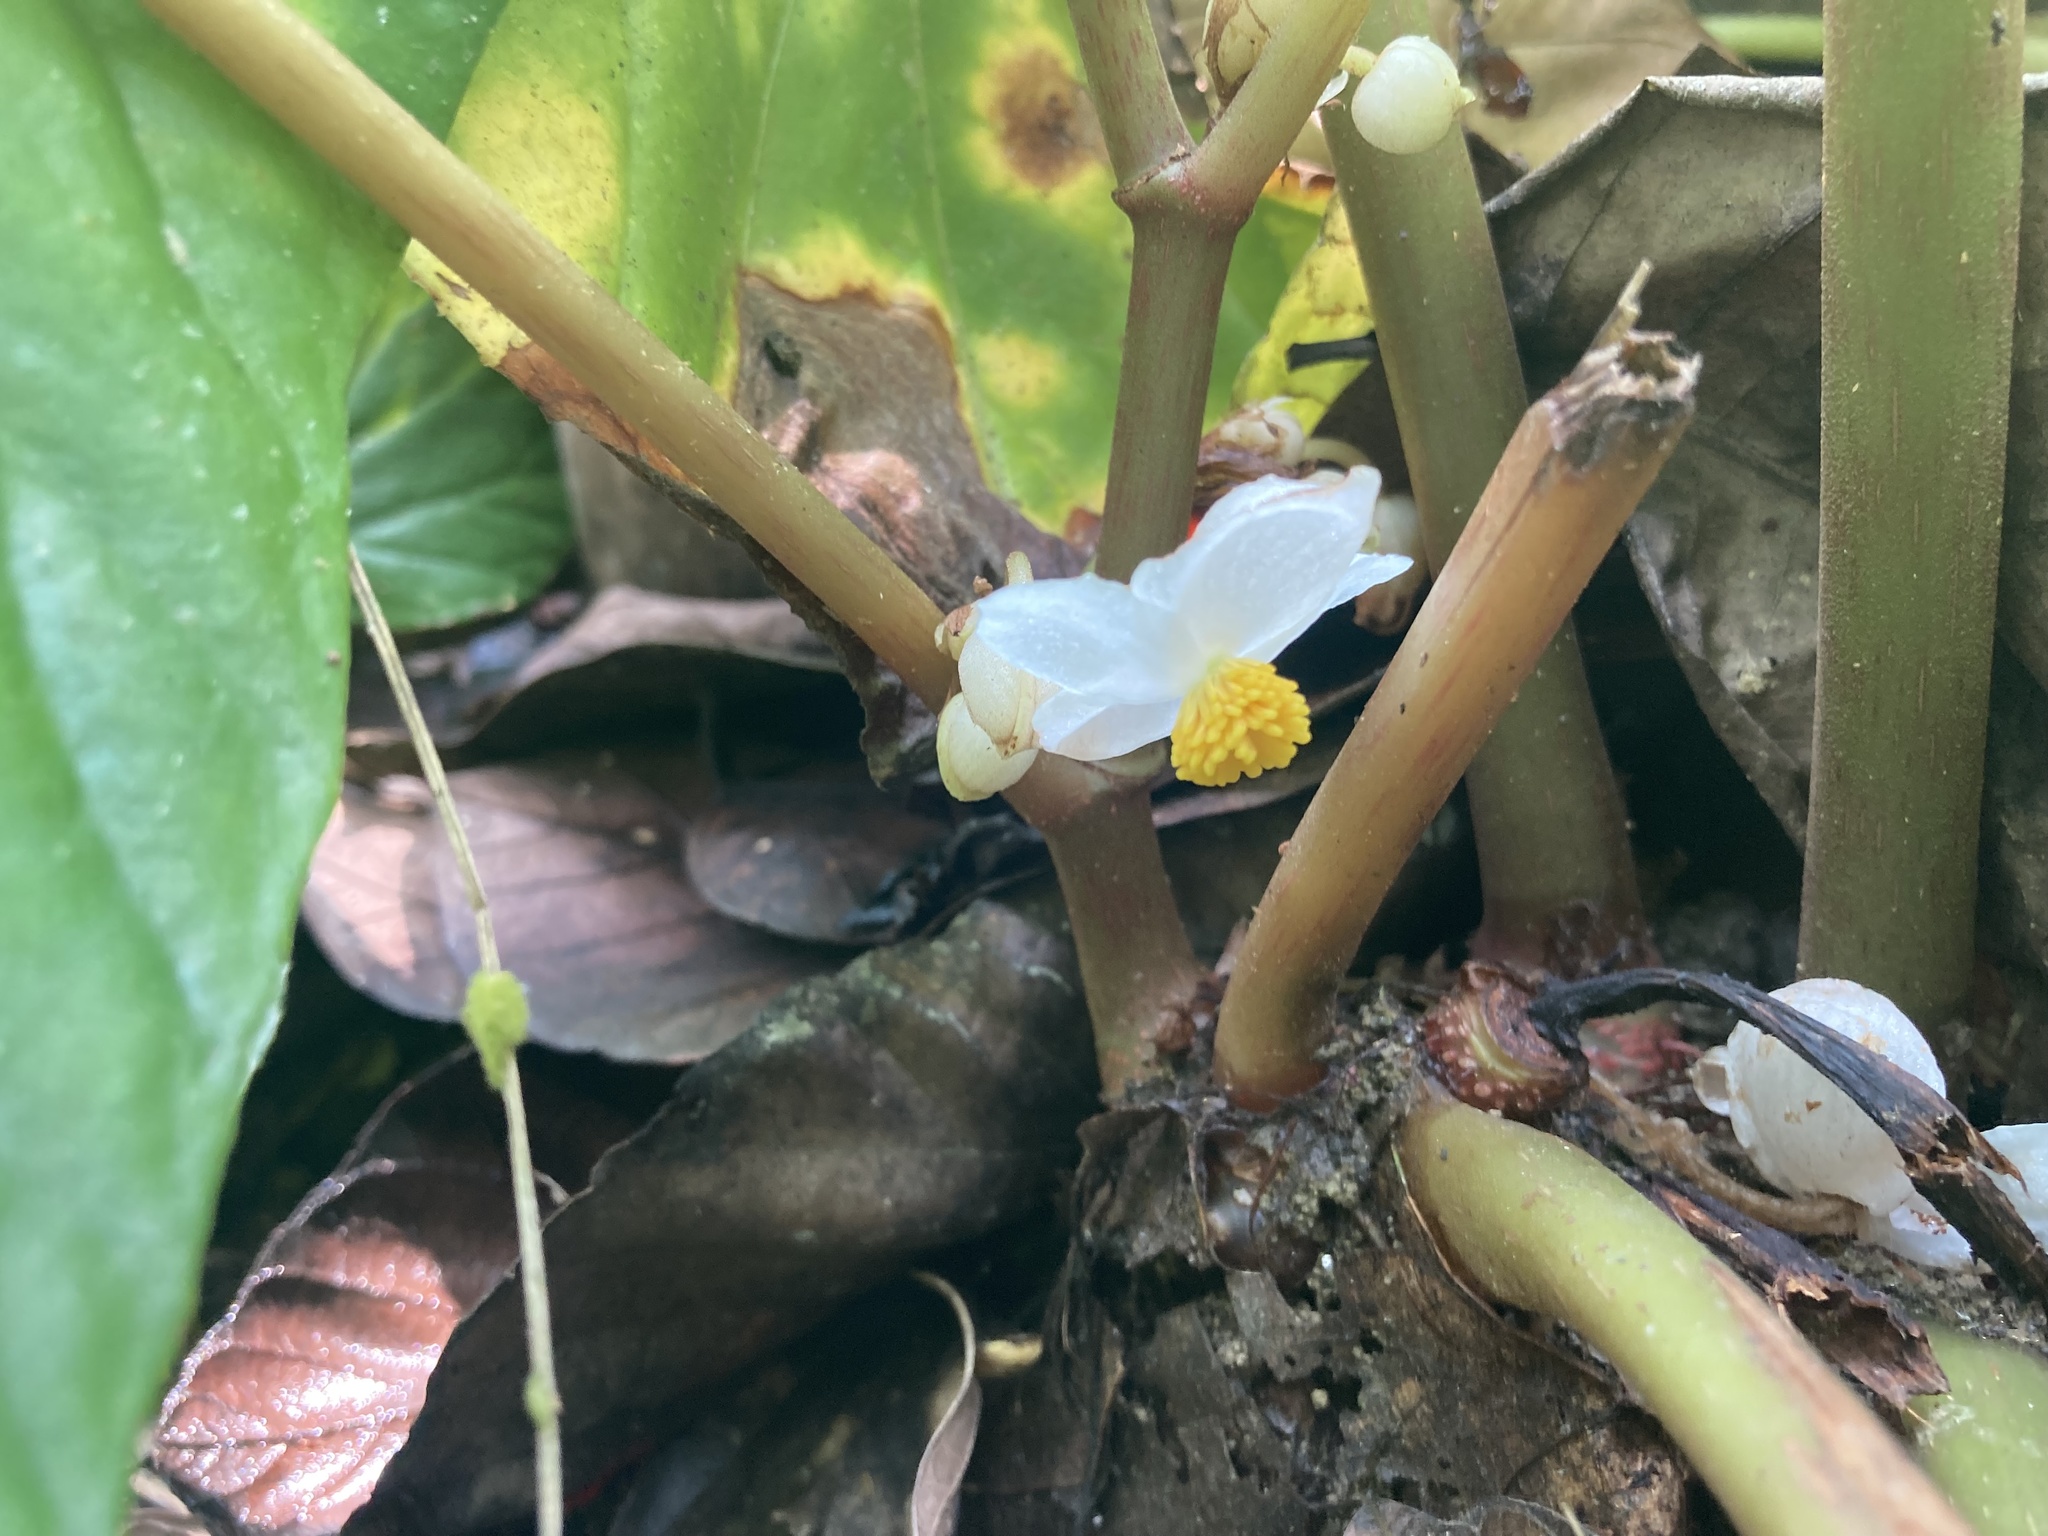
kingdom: Plantae
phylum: Tracheophyta
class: Magnoliopsida
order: Cucurbitales
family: Begoniaceae
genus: Begonia
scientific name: Begonia roxburghii
